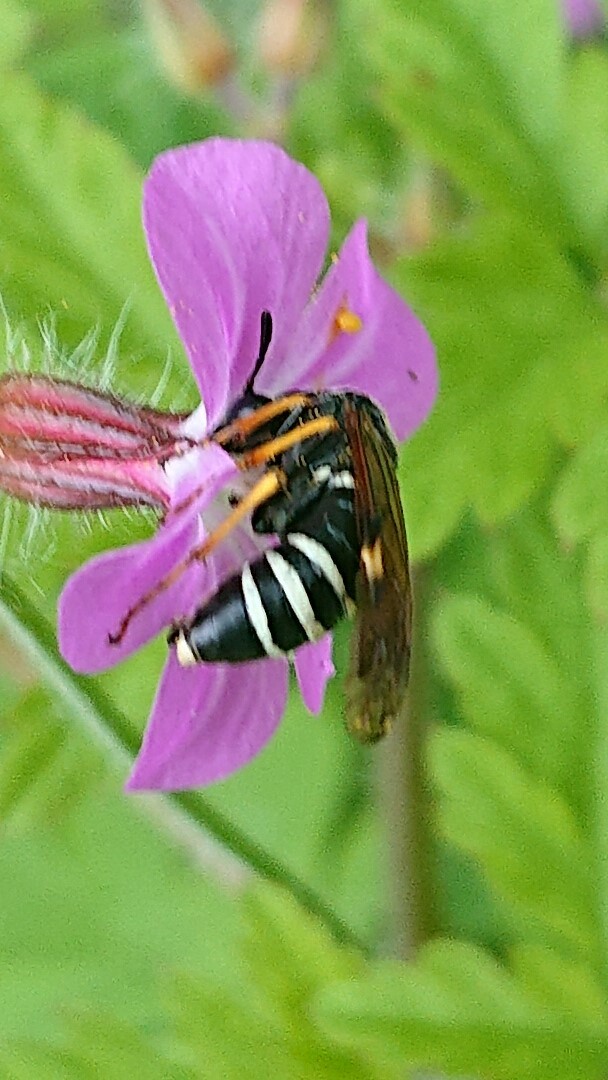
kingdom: Animalia
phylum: Arthropoda
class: Insecta
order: Hymenoptera
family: Tenthredinidae
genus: Tenthredo
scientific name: Tenthredo koehleri
